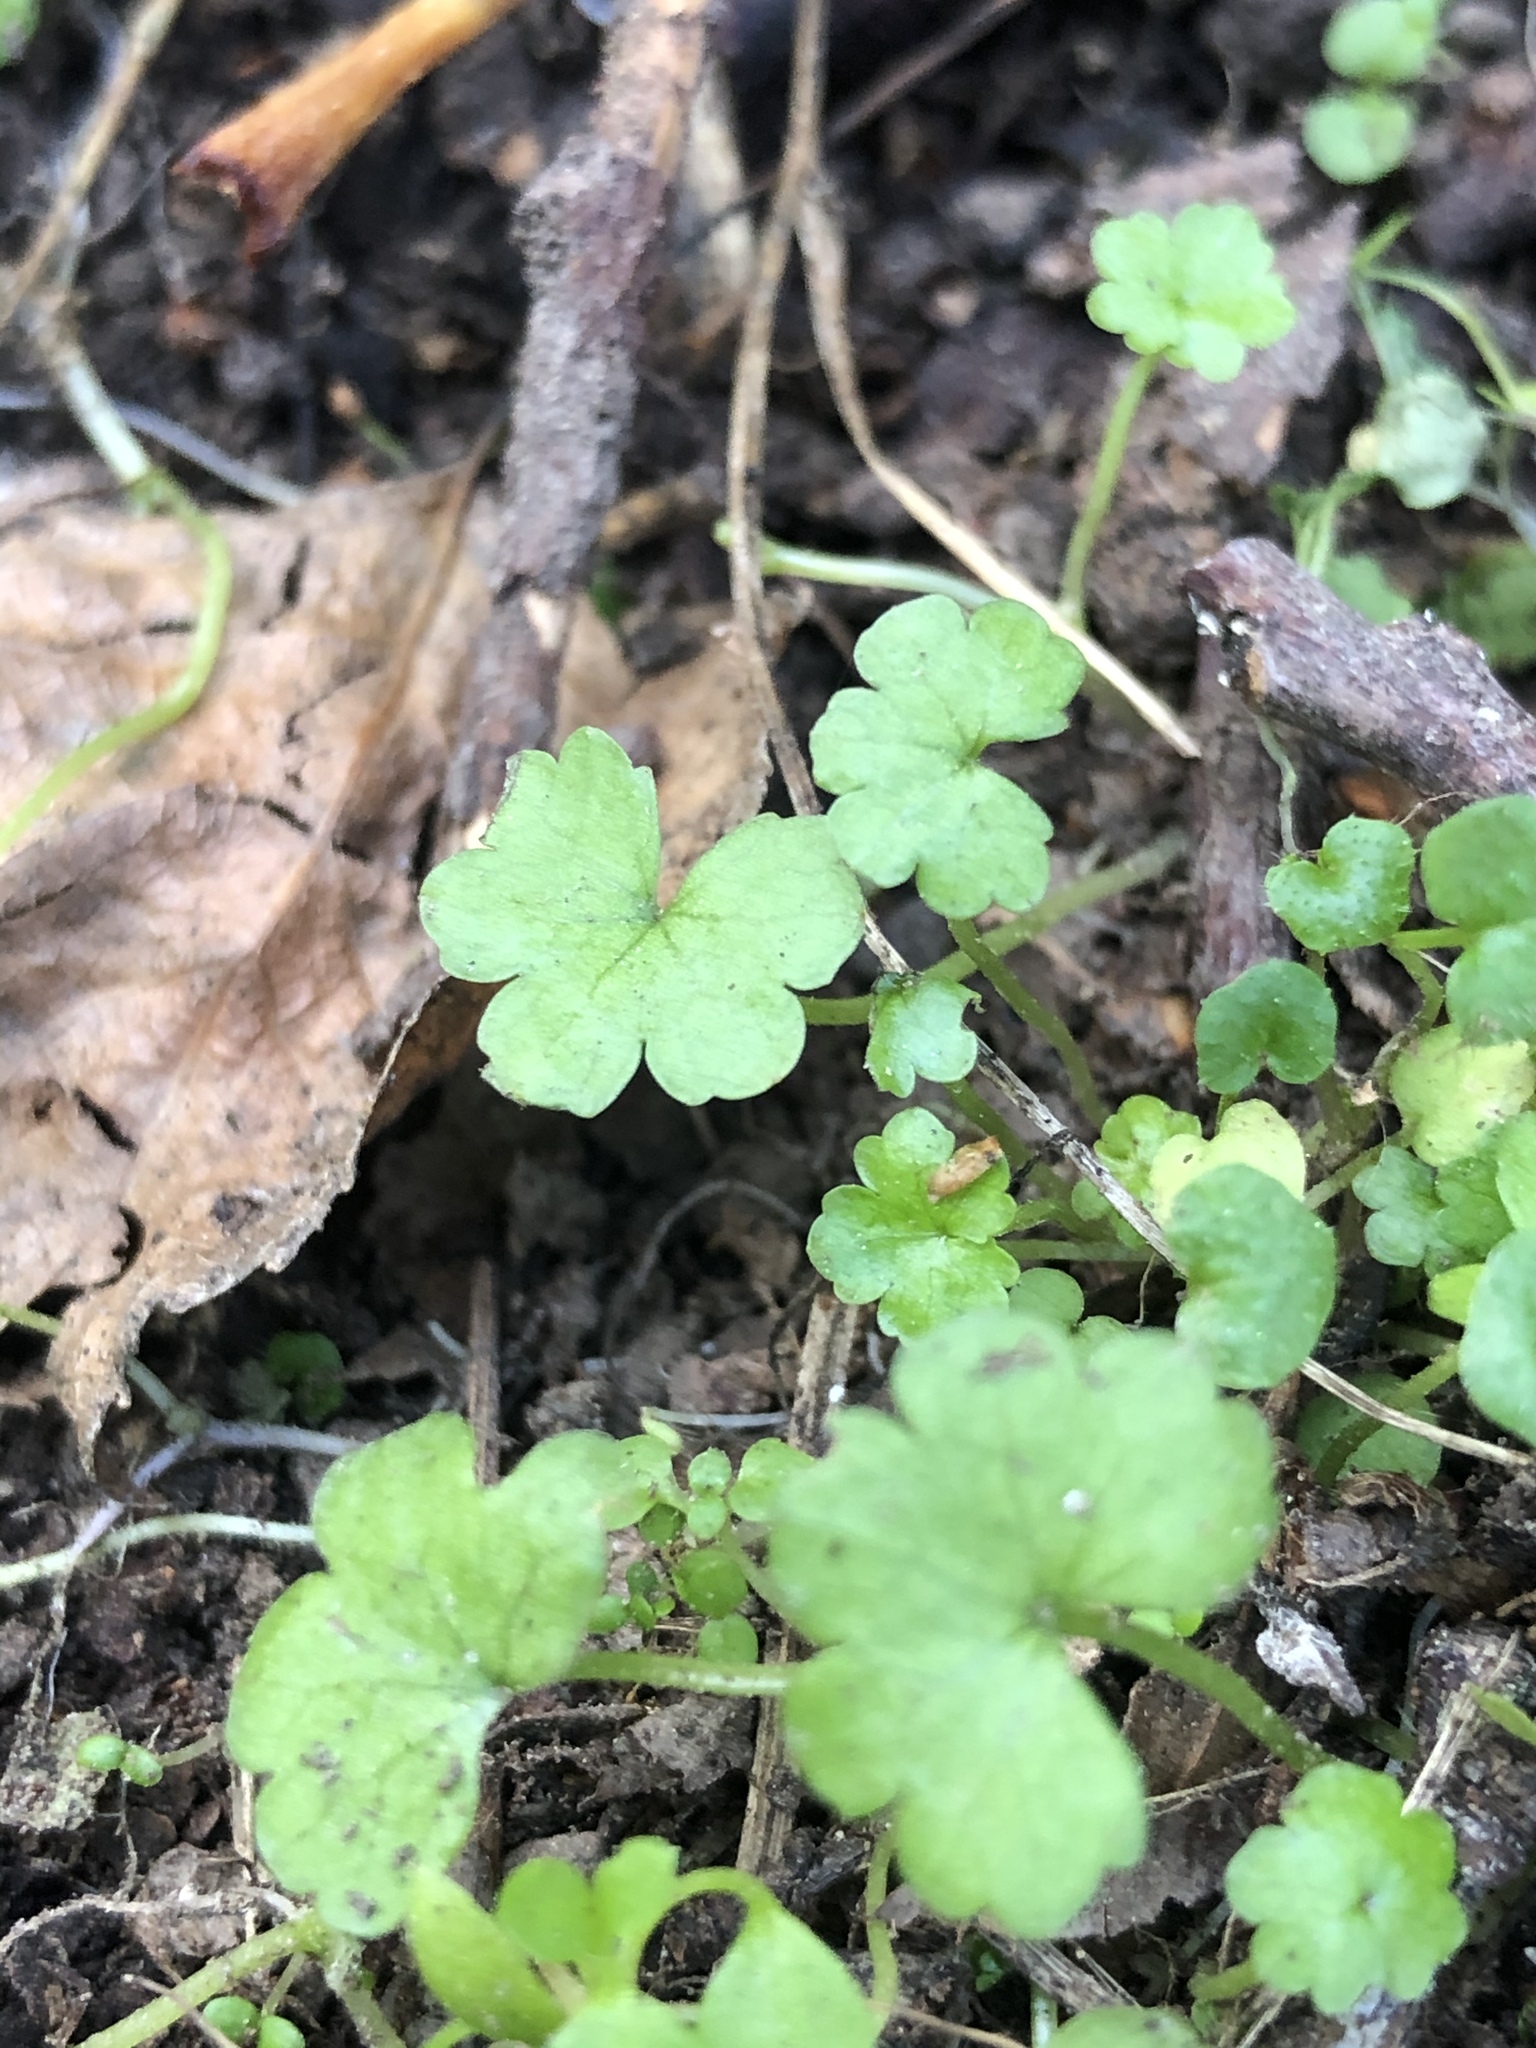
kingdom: Plantae
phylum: Tracheophyta
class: Magnoliopsida
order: Apiales
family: Araliaceae
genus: Hydrocotyle
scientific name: Hydrocotyle heteromeria
